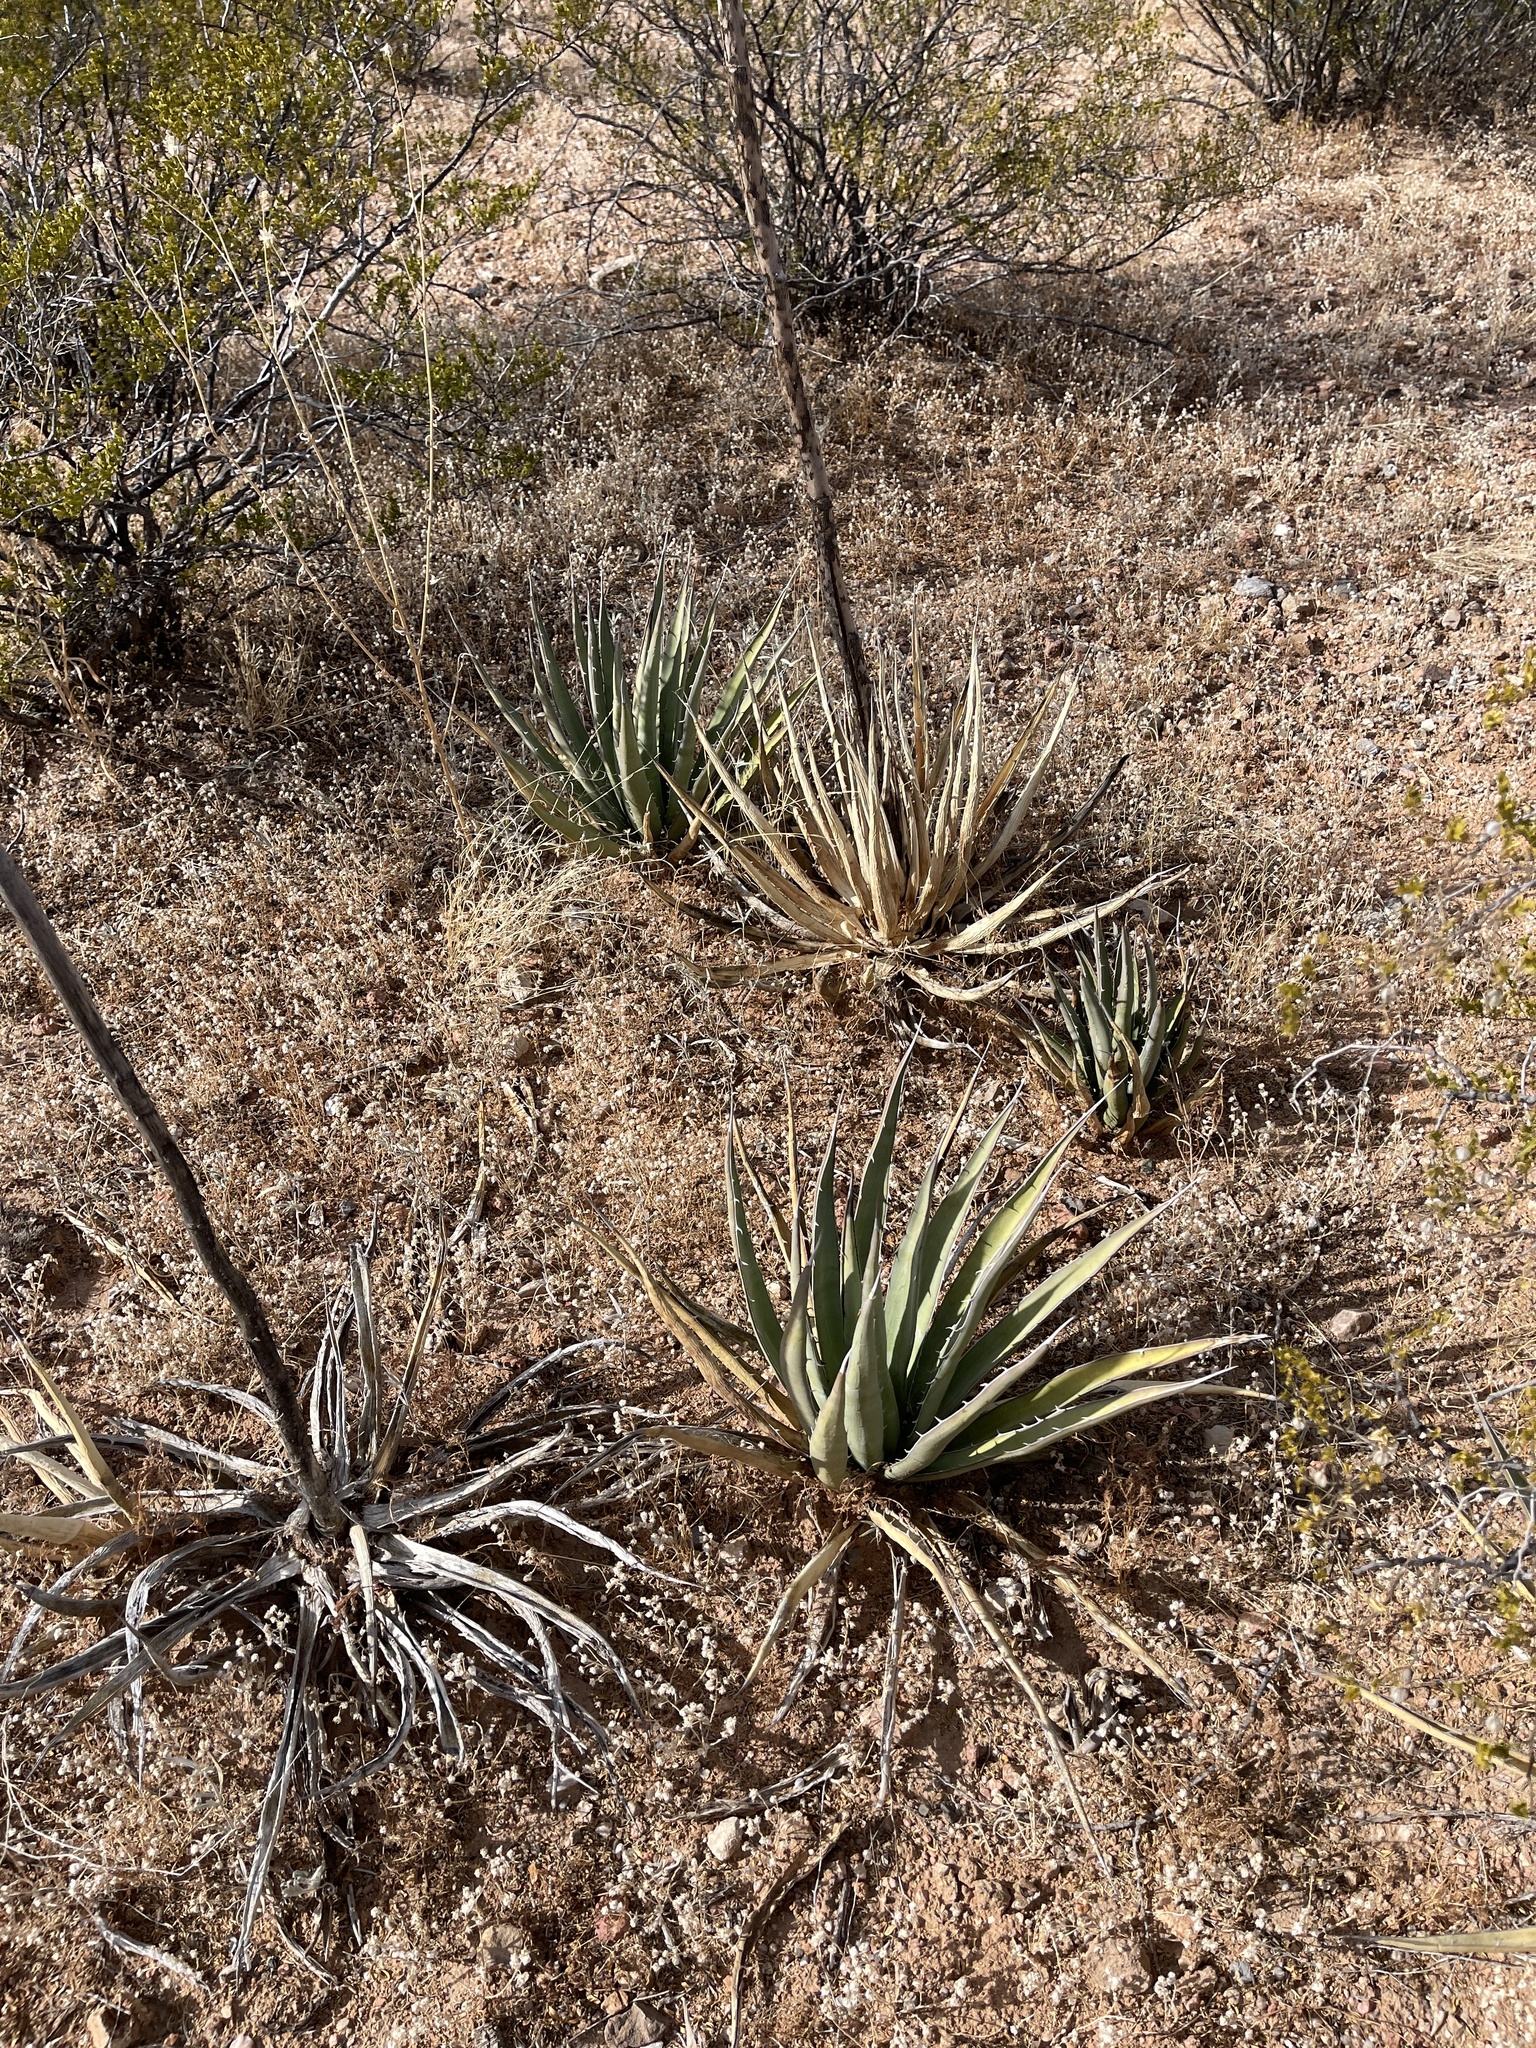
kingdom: Plantae
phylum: Tracheophyta
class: Liliopsida
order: Asparagales
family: Asparagaceae
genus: Agave
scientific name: Agave lechuguilla
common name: Lecheguilla agave
